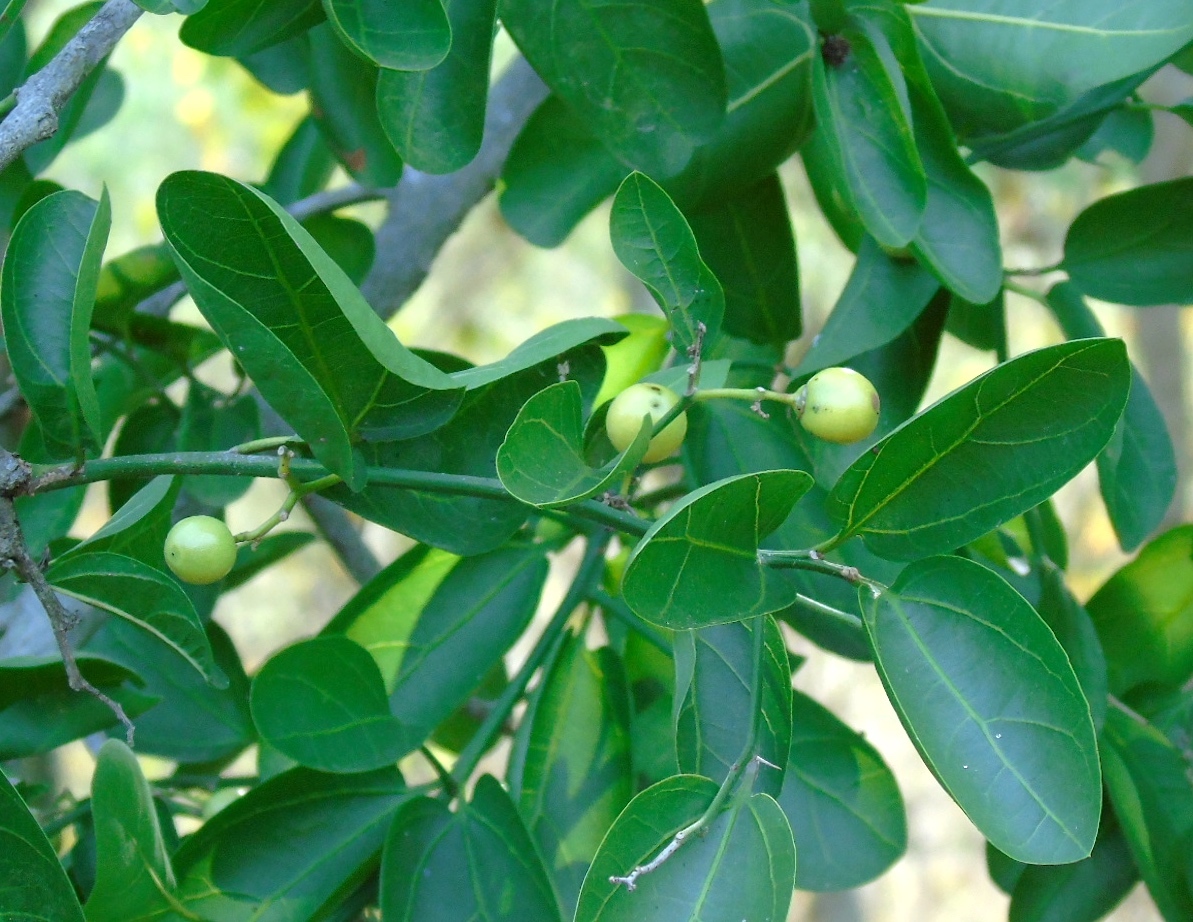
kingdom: Plantae
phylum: Tracheophyta
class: Magnoliopsida
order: Rosales
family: Rhamnaceae
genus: Sarcomphalus
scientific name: Sarcomphalus amole
